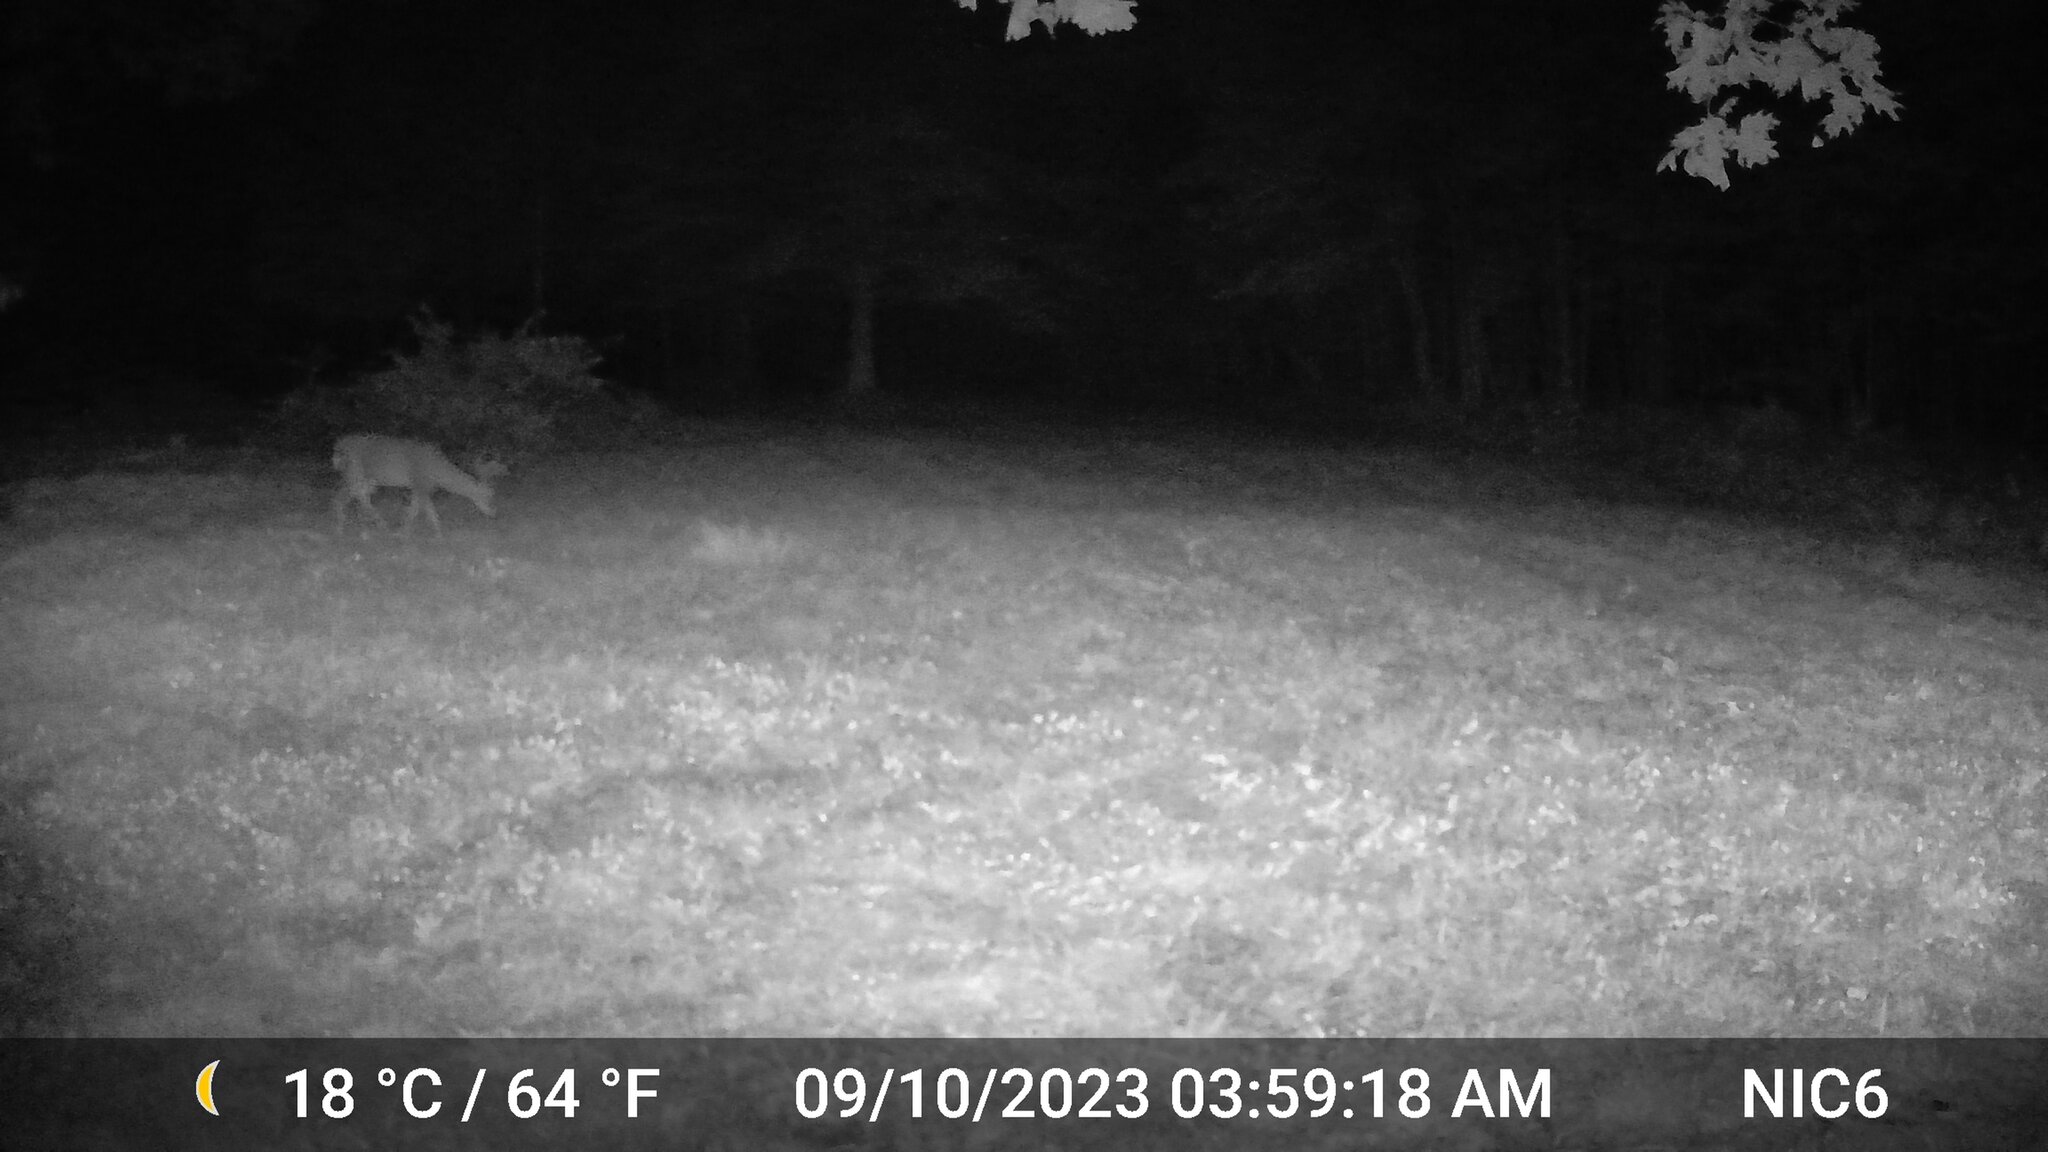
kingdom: Animalia
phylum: Chordata
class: Mammalia
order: Artiodactyla
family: Cervidae
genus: Odocoileus
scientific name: Odocoileus virginianus
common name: White-tailed deer
